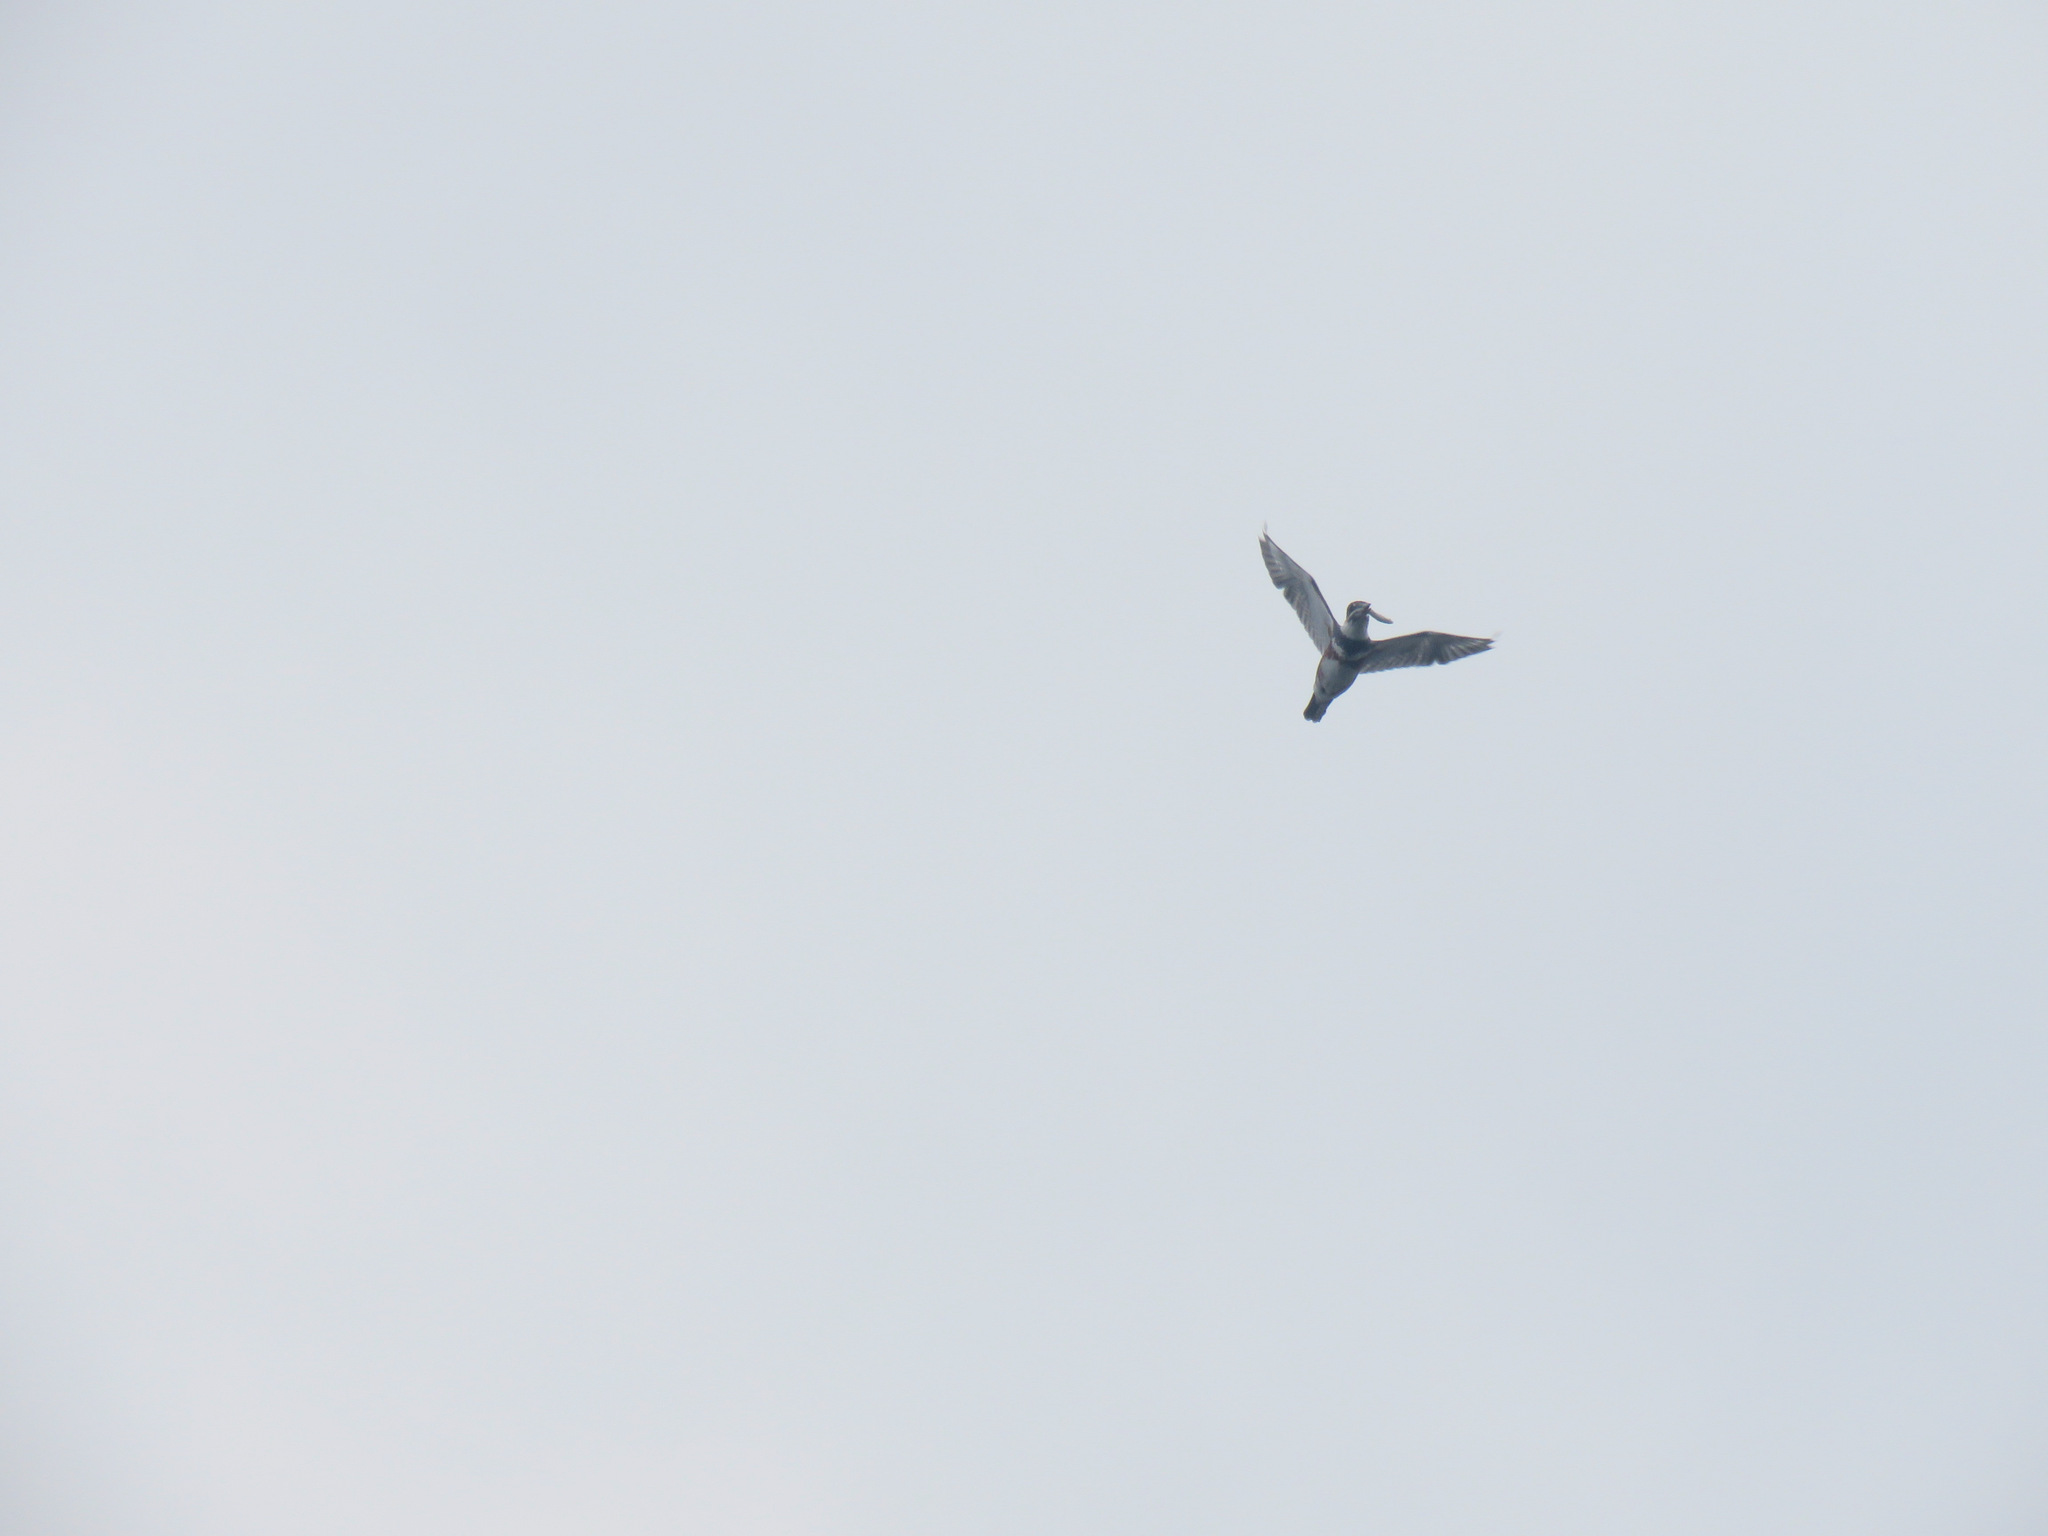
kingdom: Animalia
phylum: Chordata
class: Aves
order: Coraciiformes
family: Alcedinidae
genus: Megaceryle
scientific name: Megaceryle alcyon
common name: Belted kingfisher
